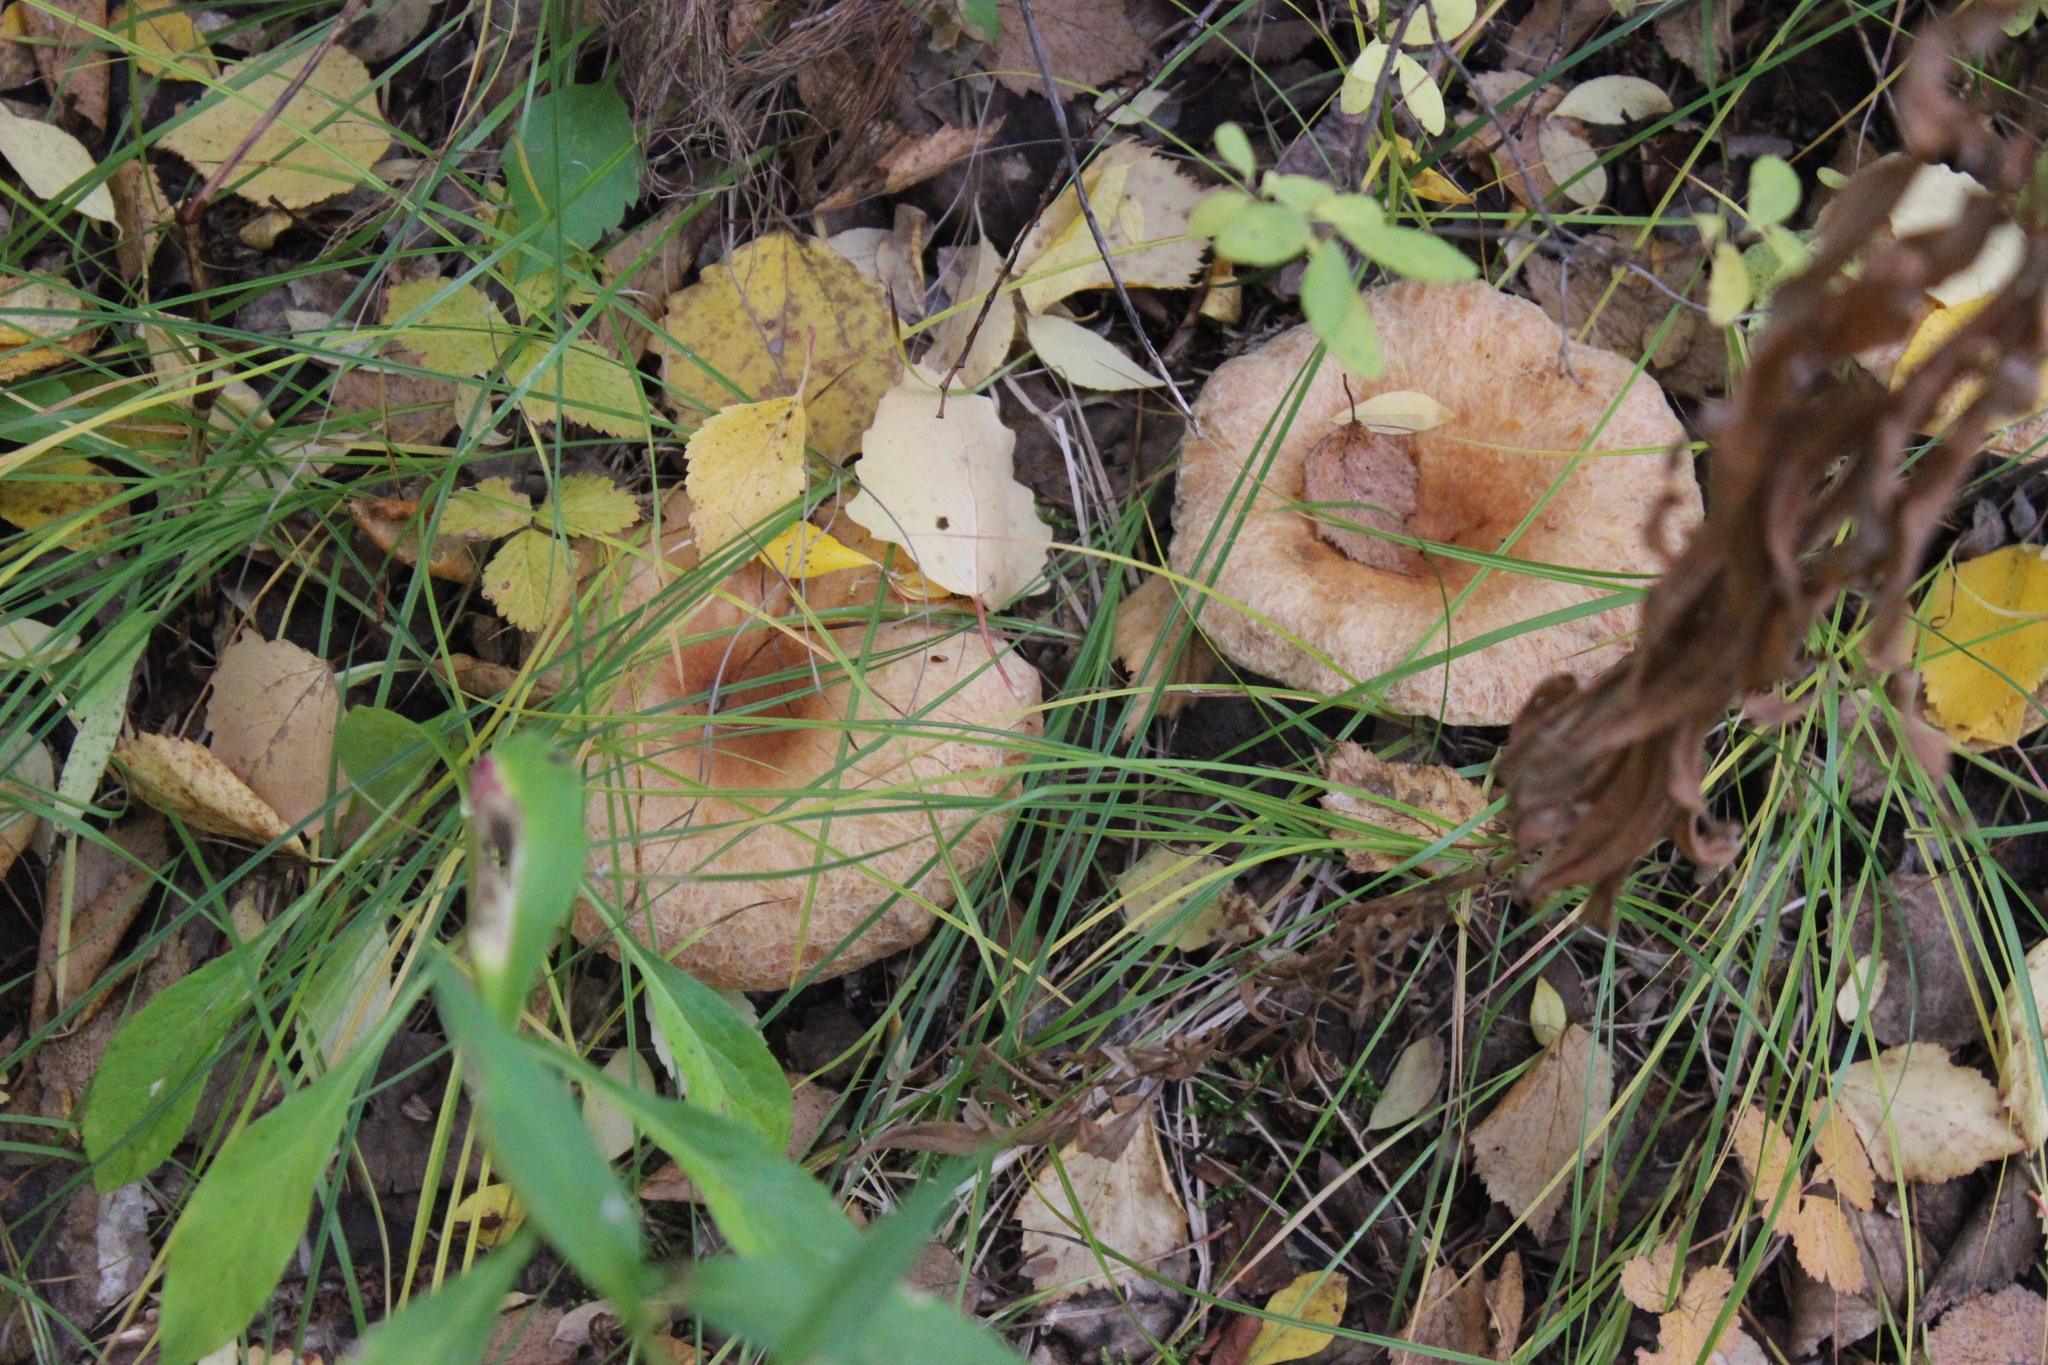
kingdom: Fungi
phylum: Basidiomycota
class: Agaricomycetes
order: Russulales
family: Russulaceae
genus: Lactarius
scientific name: Lactarius torminosus
